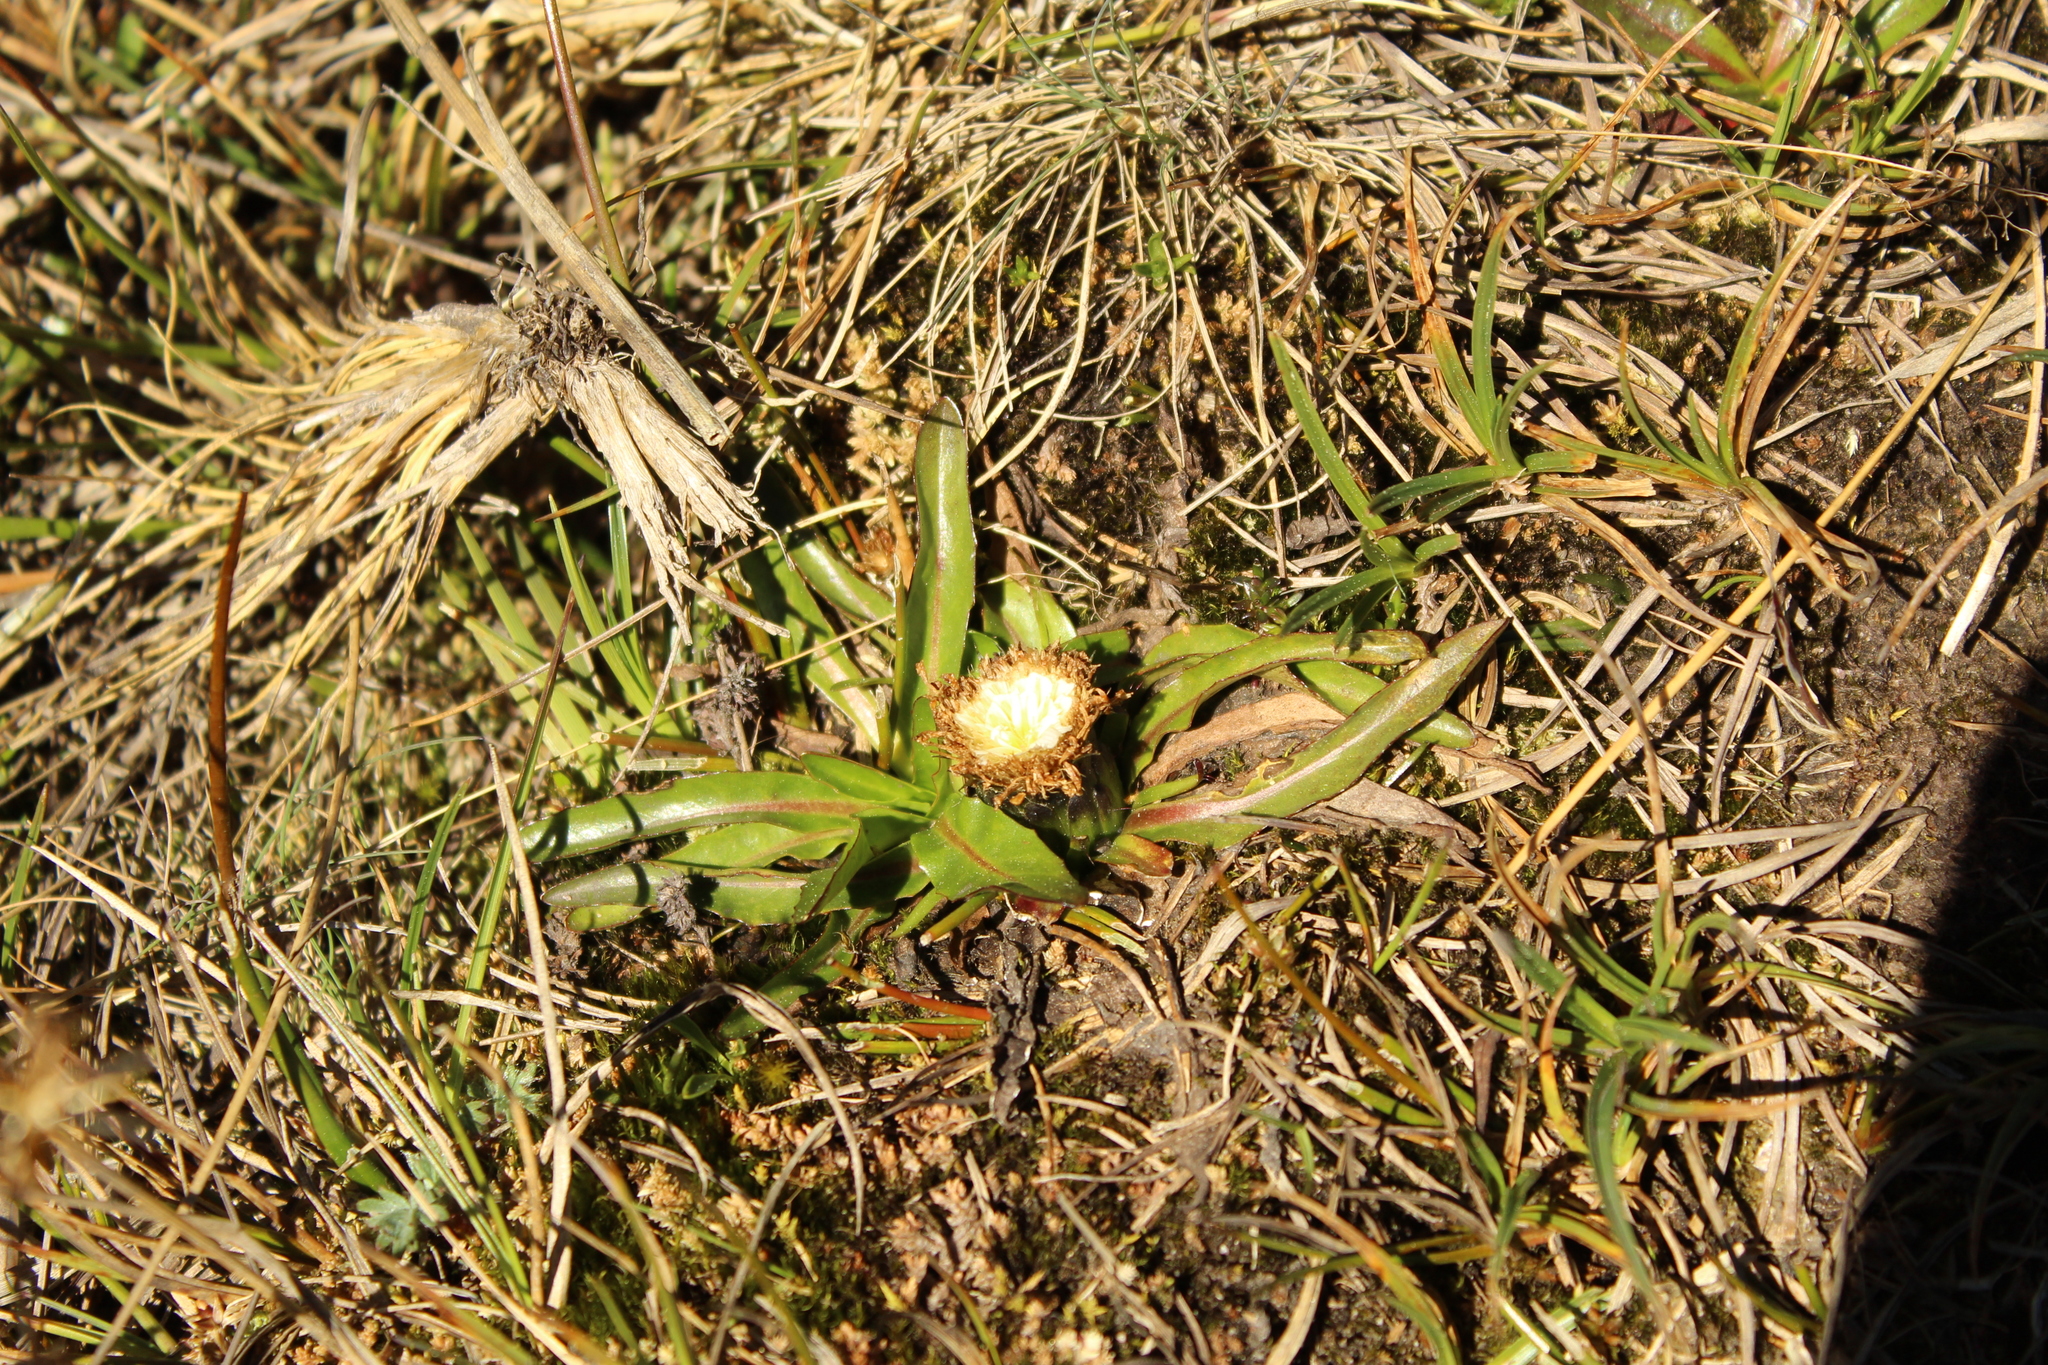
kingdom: Plantae
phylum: Tracheophyta
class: Magnoliopsida
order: Asterales
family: Asteraceae
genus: Hypochaeris
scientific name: Hypochaeris sessiliflora
